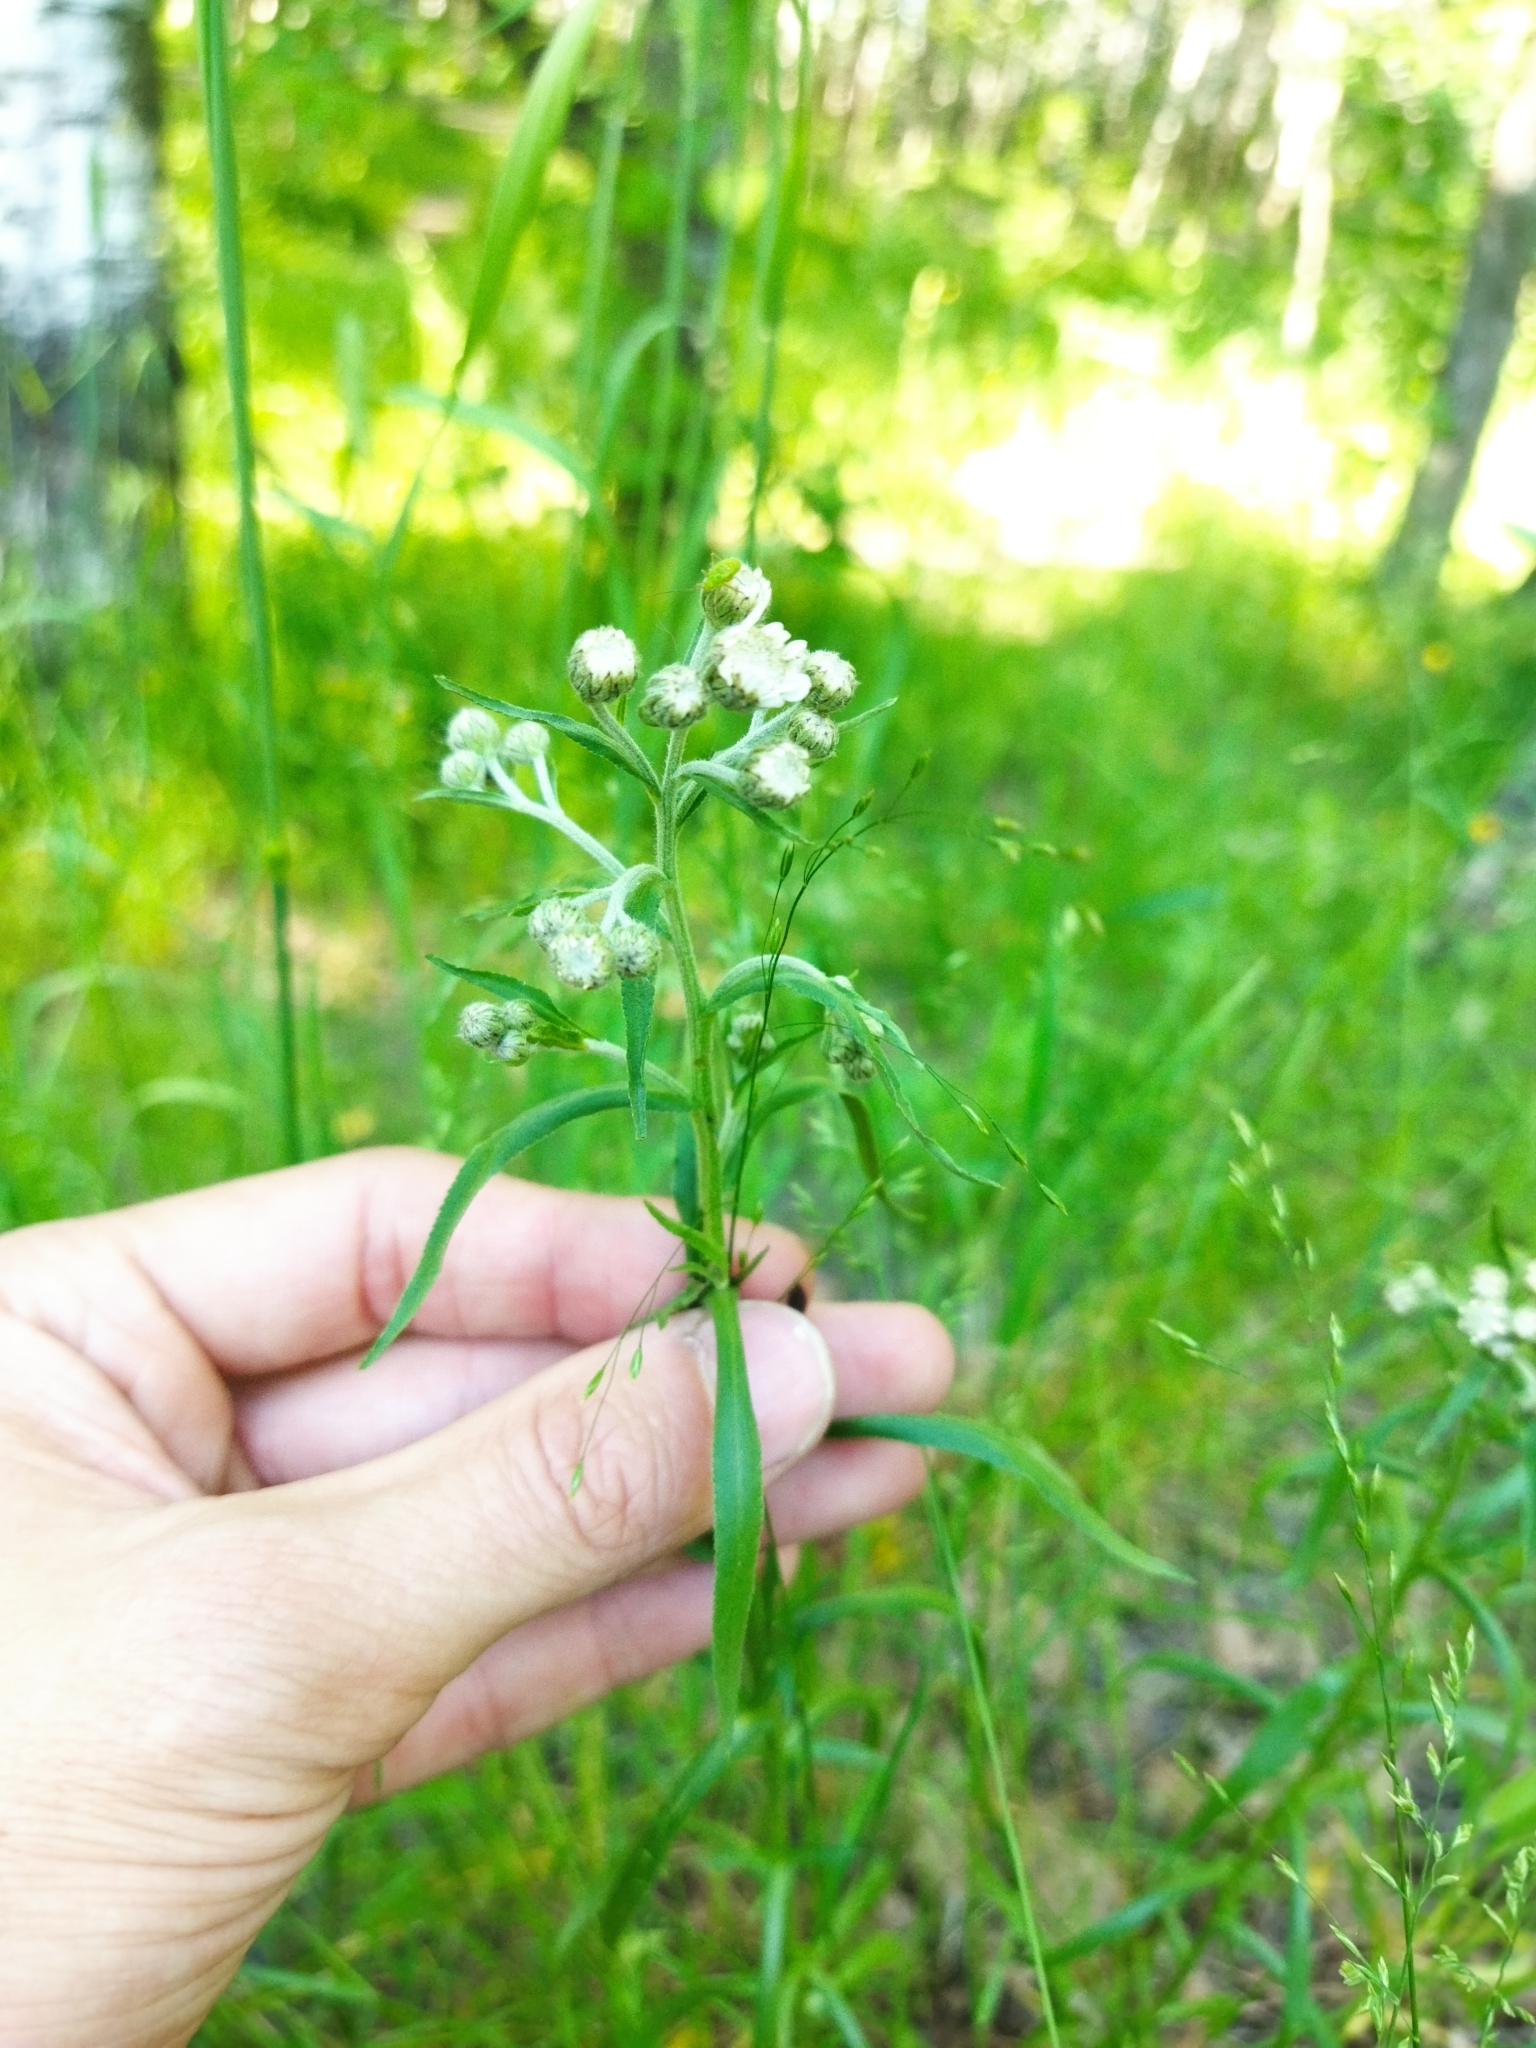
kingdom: Plantae
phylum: Tracheophyta
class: Magnoliopsida
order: Asterales
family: Asteraceae
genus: Achillea
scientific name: Achillea ptarmica
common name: Sneezeweed
